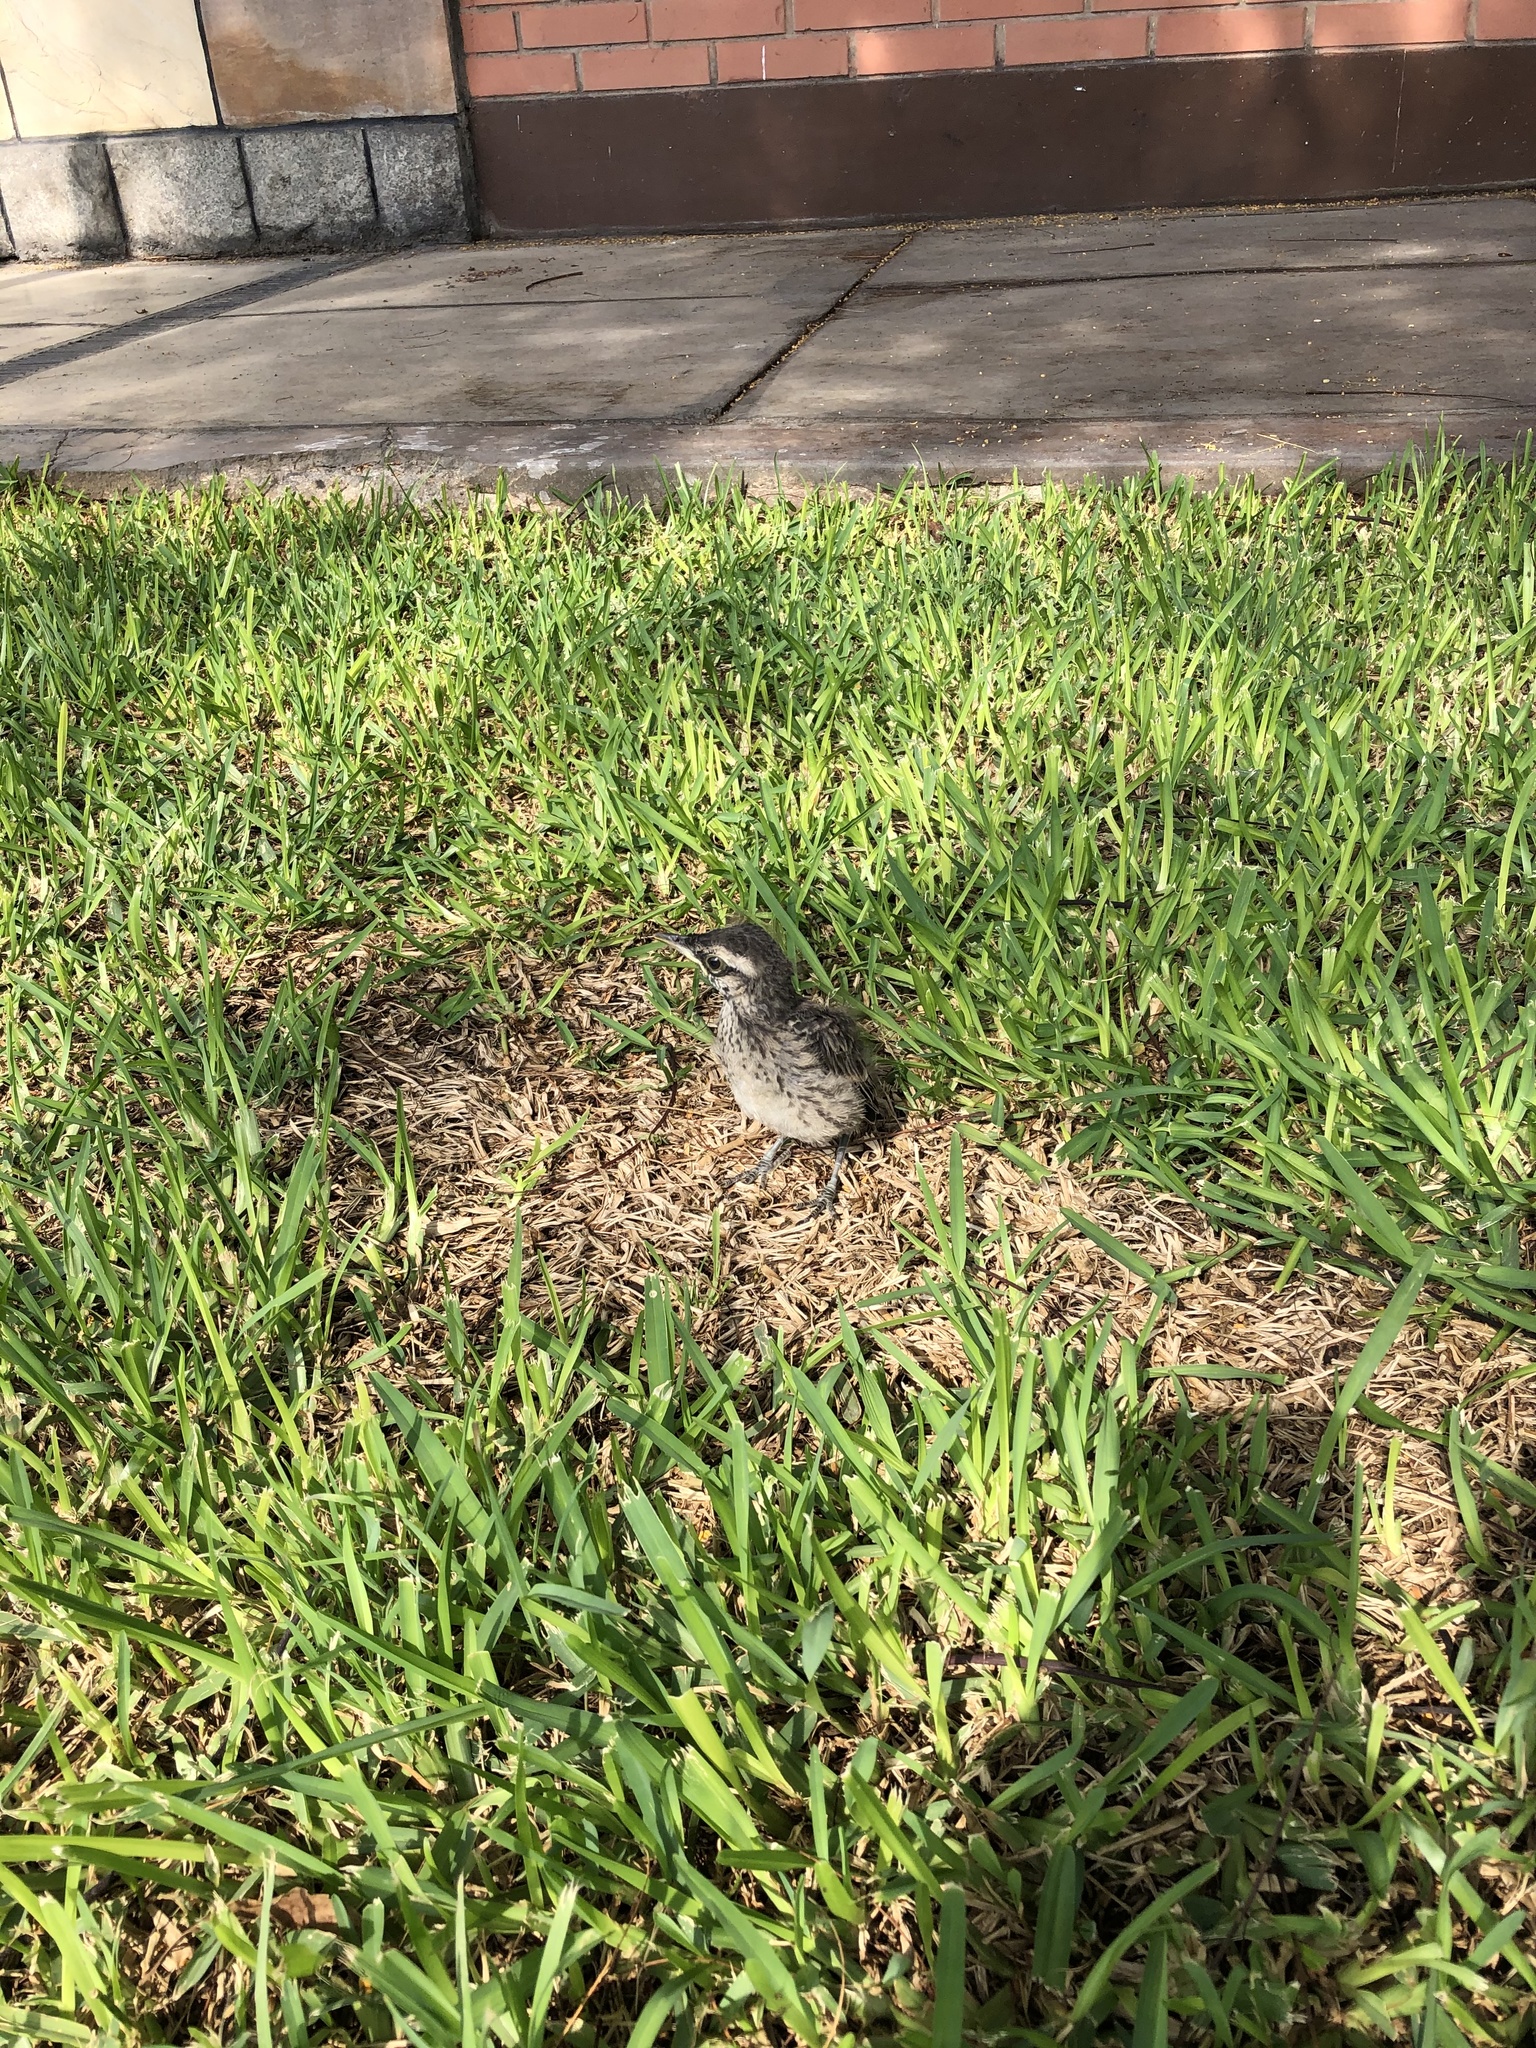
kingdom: Animalia
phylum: Chordata
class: Aves
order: Passeriformes
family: Mimidae
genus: Mimus
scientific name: Mimus longicaudatus
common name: Long-tailed mockingbird
